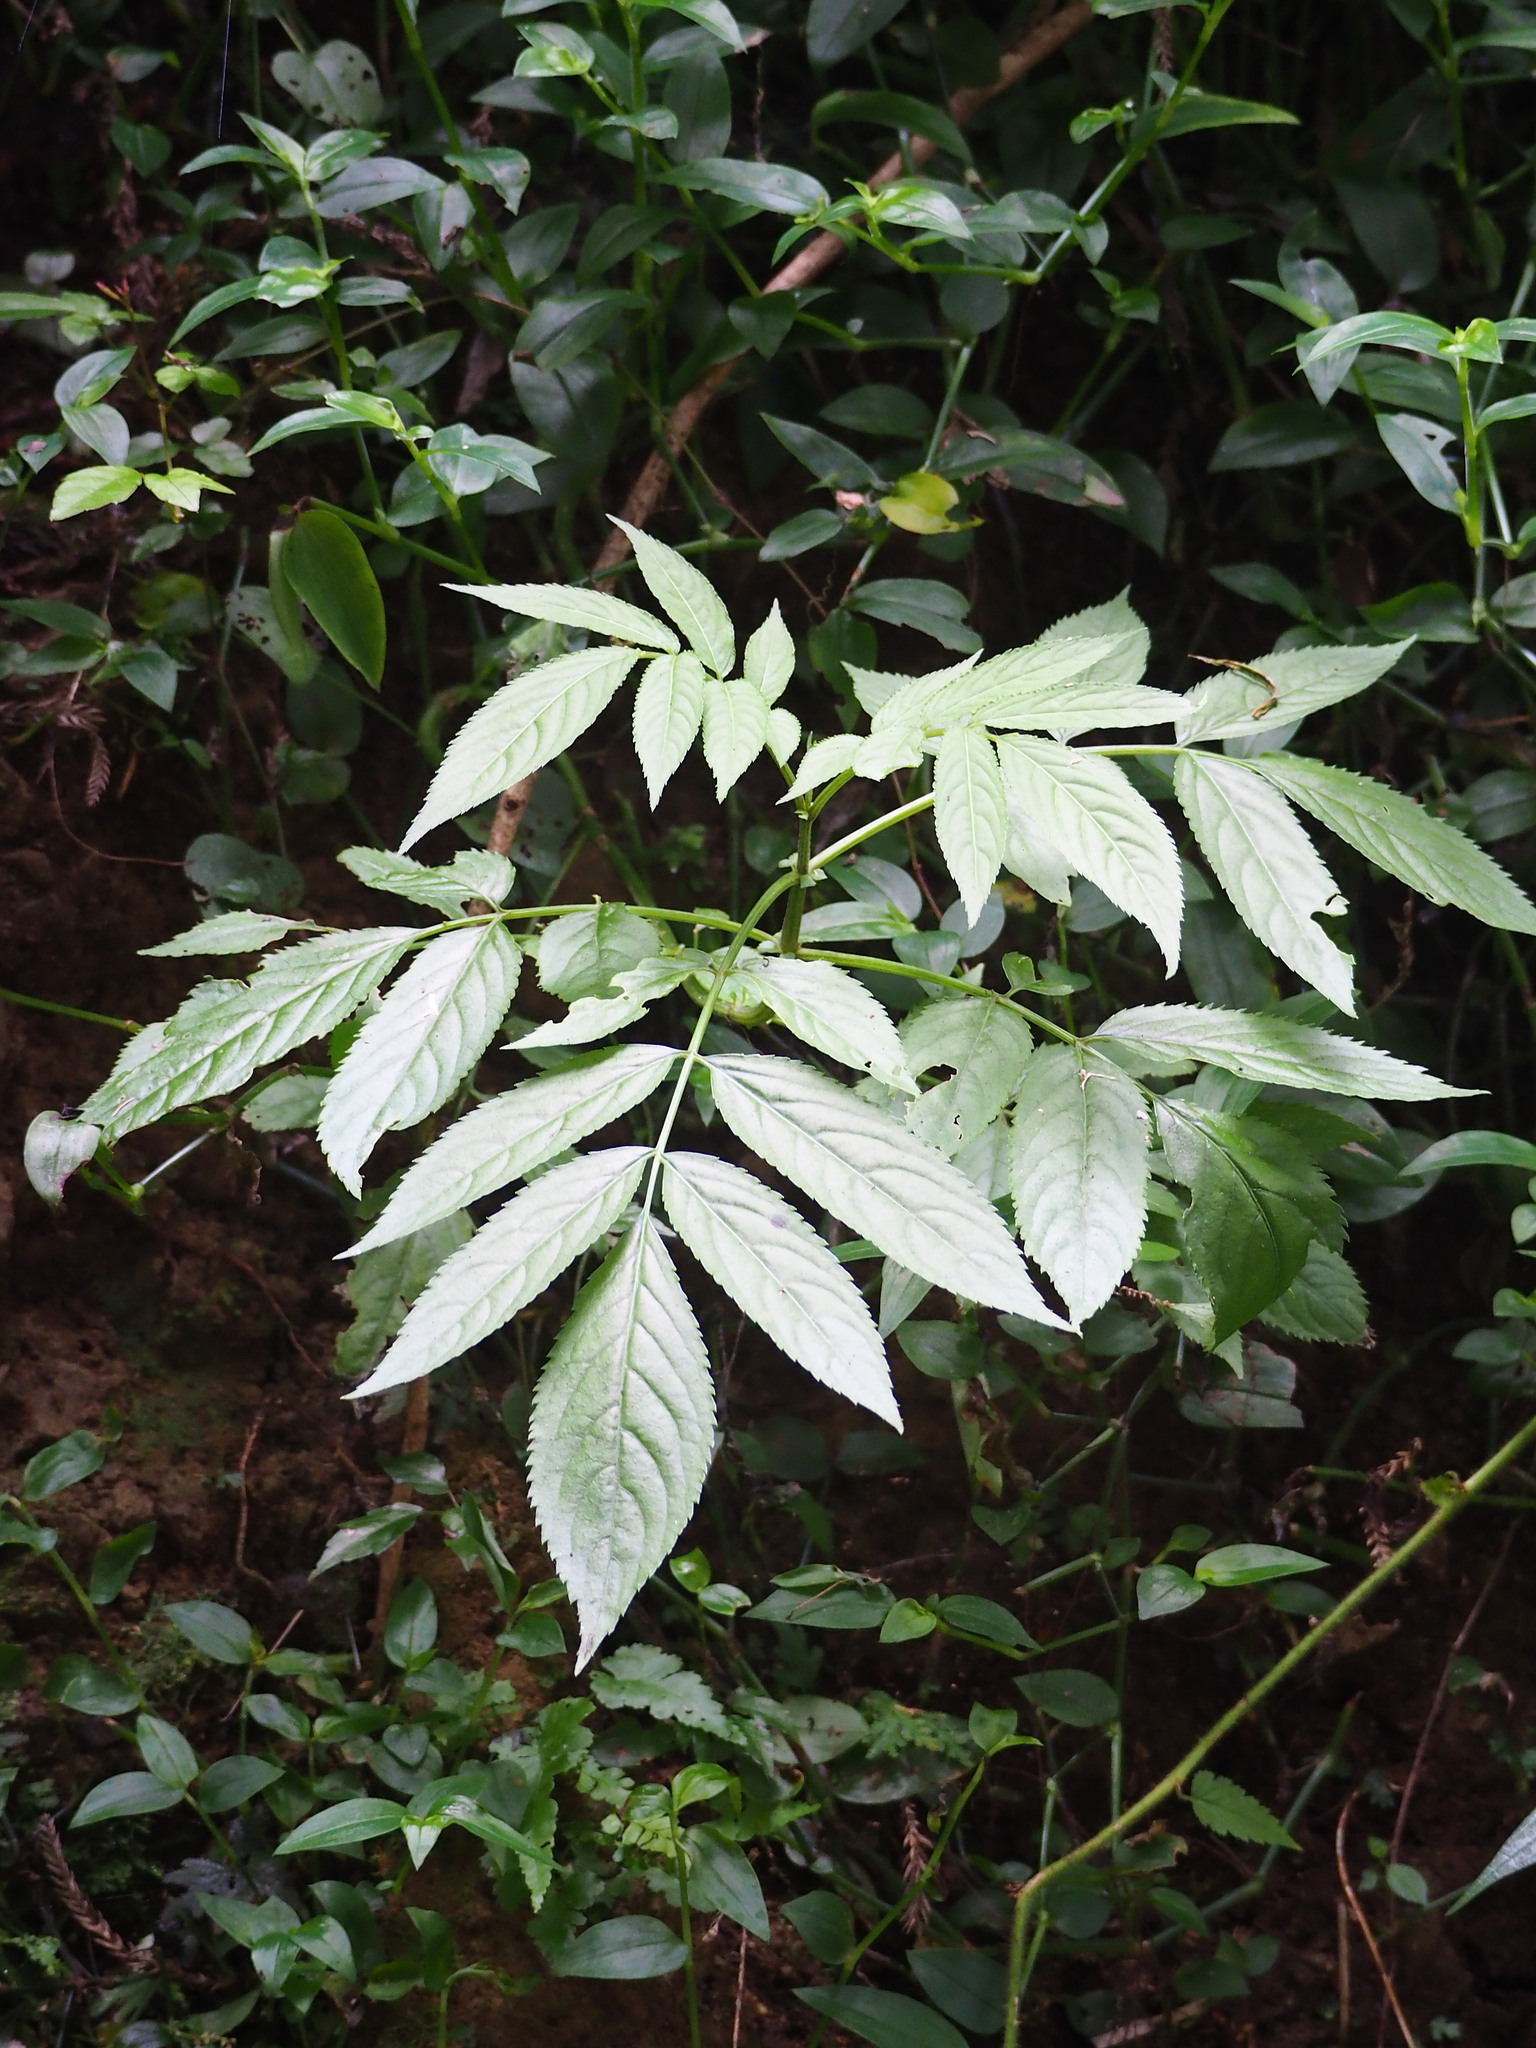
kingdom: Plantae
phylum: Tracheophyta
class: Magnoliopsida
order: Dipsacales
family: Viburnaceae
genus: Sambucus
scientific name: Sambucus javanica
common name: Chinese elder
